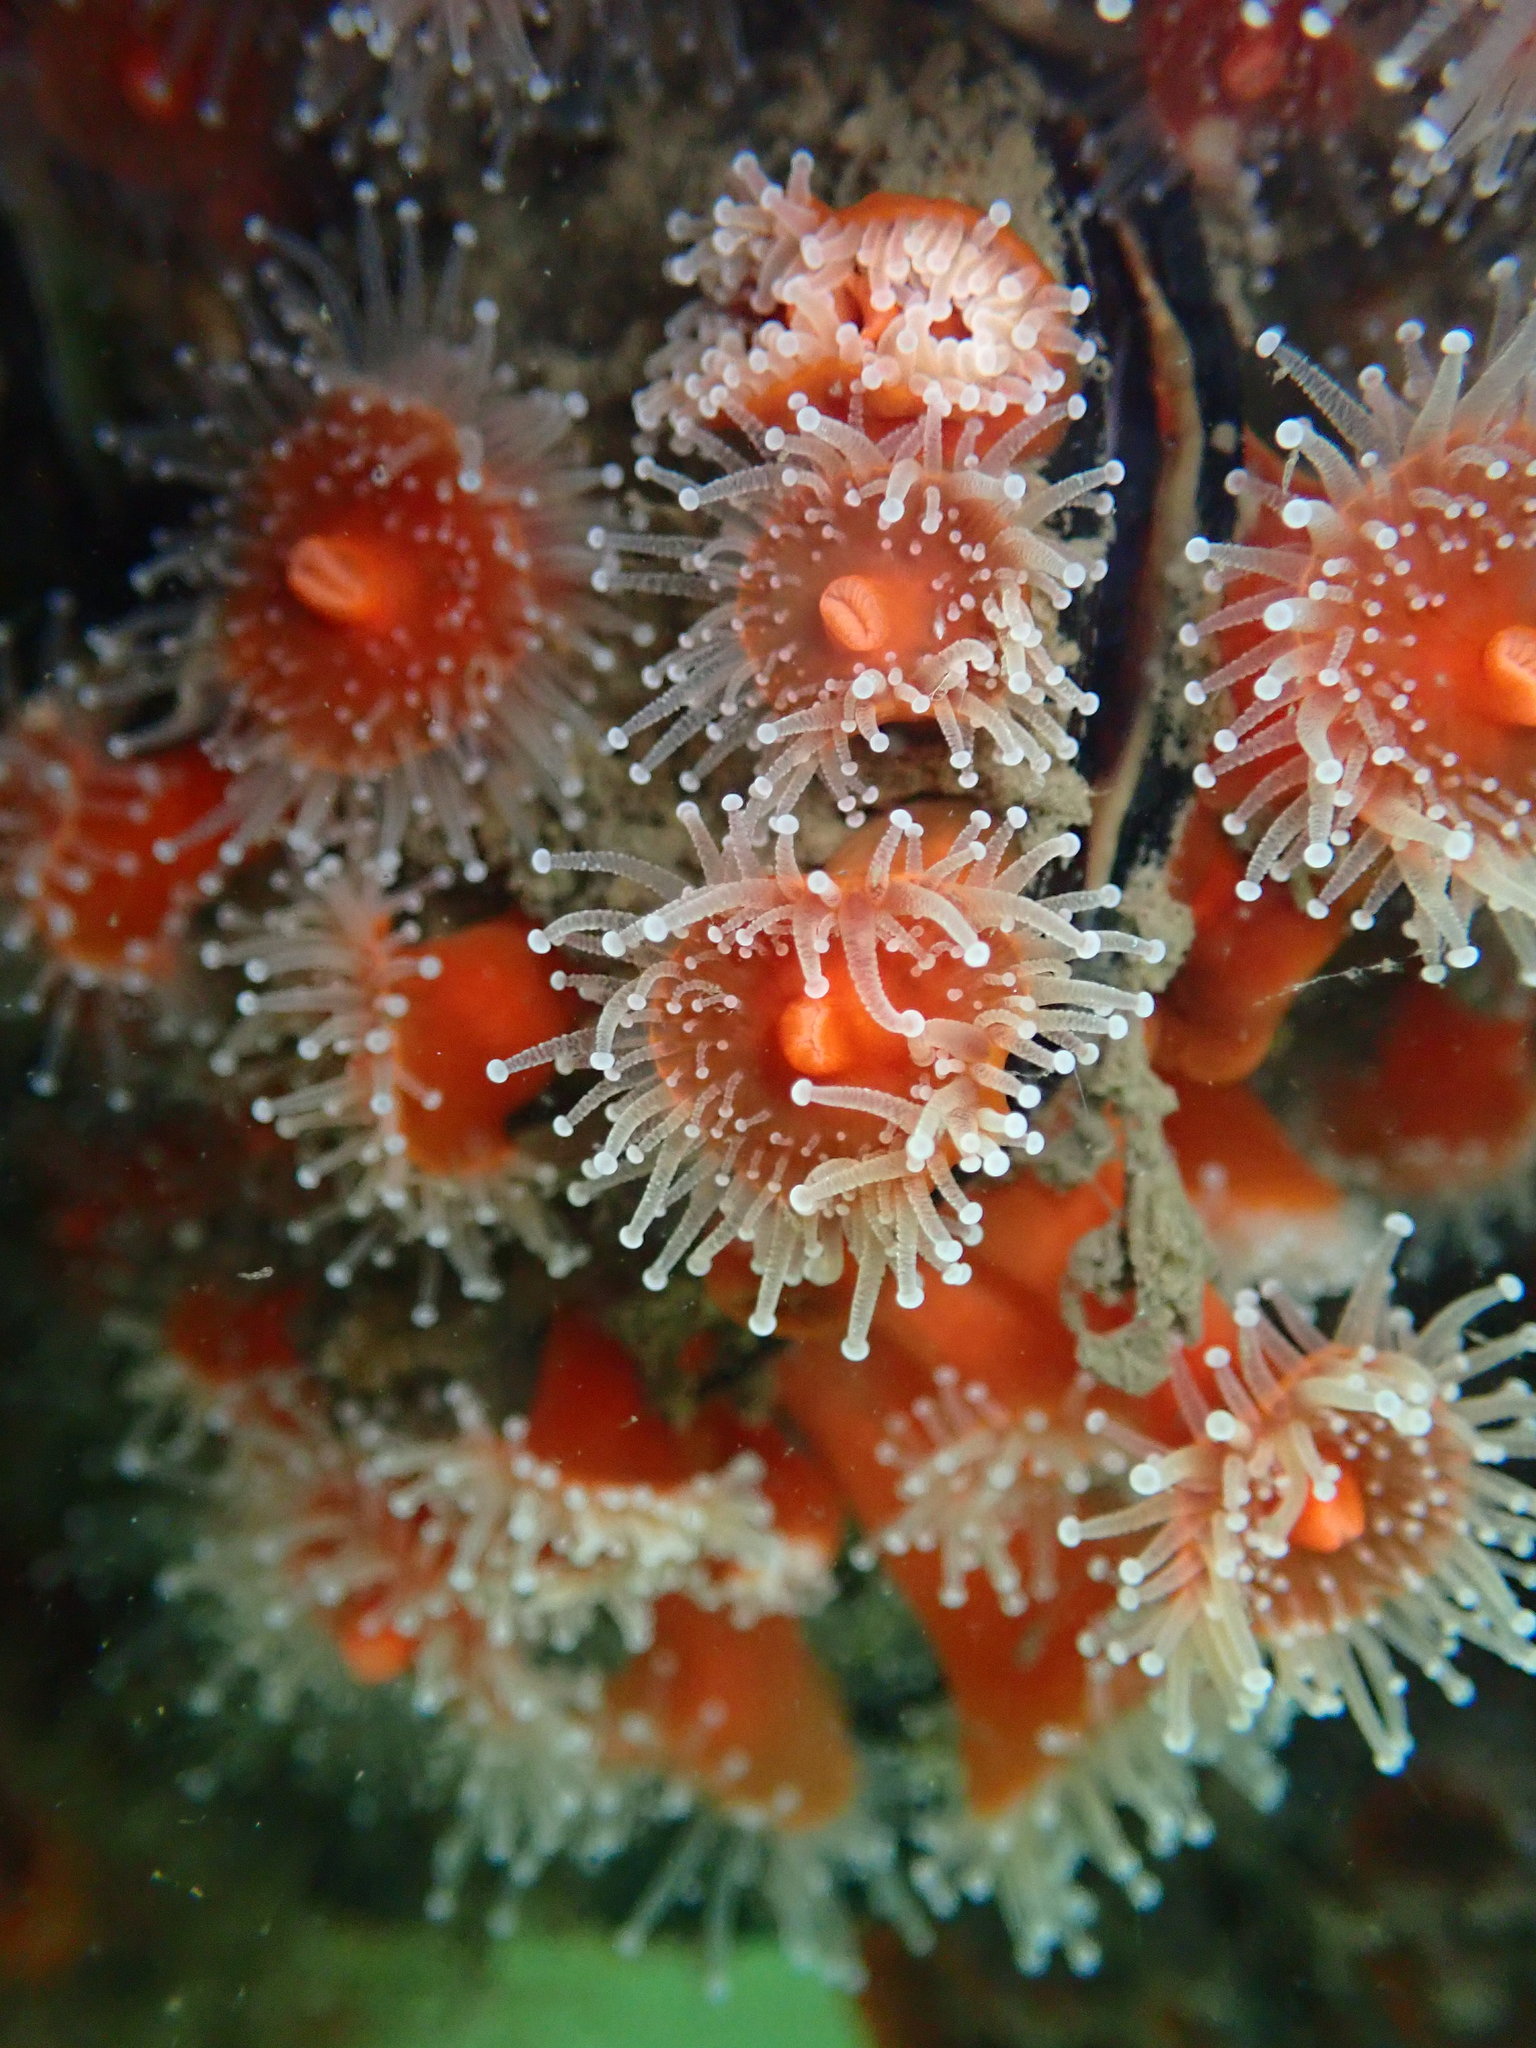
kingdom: Animalia
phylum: Cnidaria
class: Anthozoa
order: Corallimorpharia
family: Corallimorphidae
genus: Corynactis
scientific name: Corynactis californica
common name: Strawberry corallimorpharian
